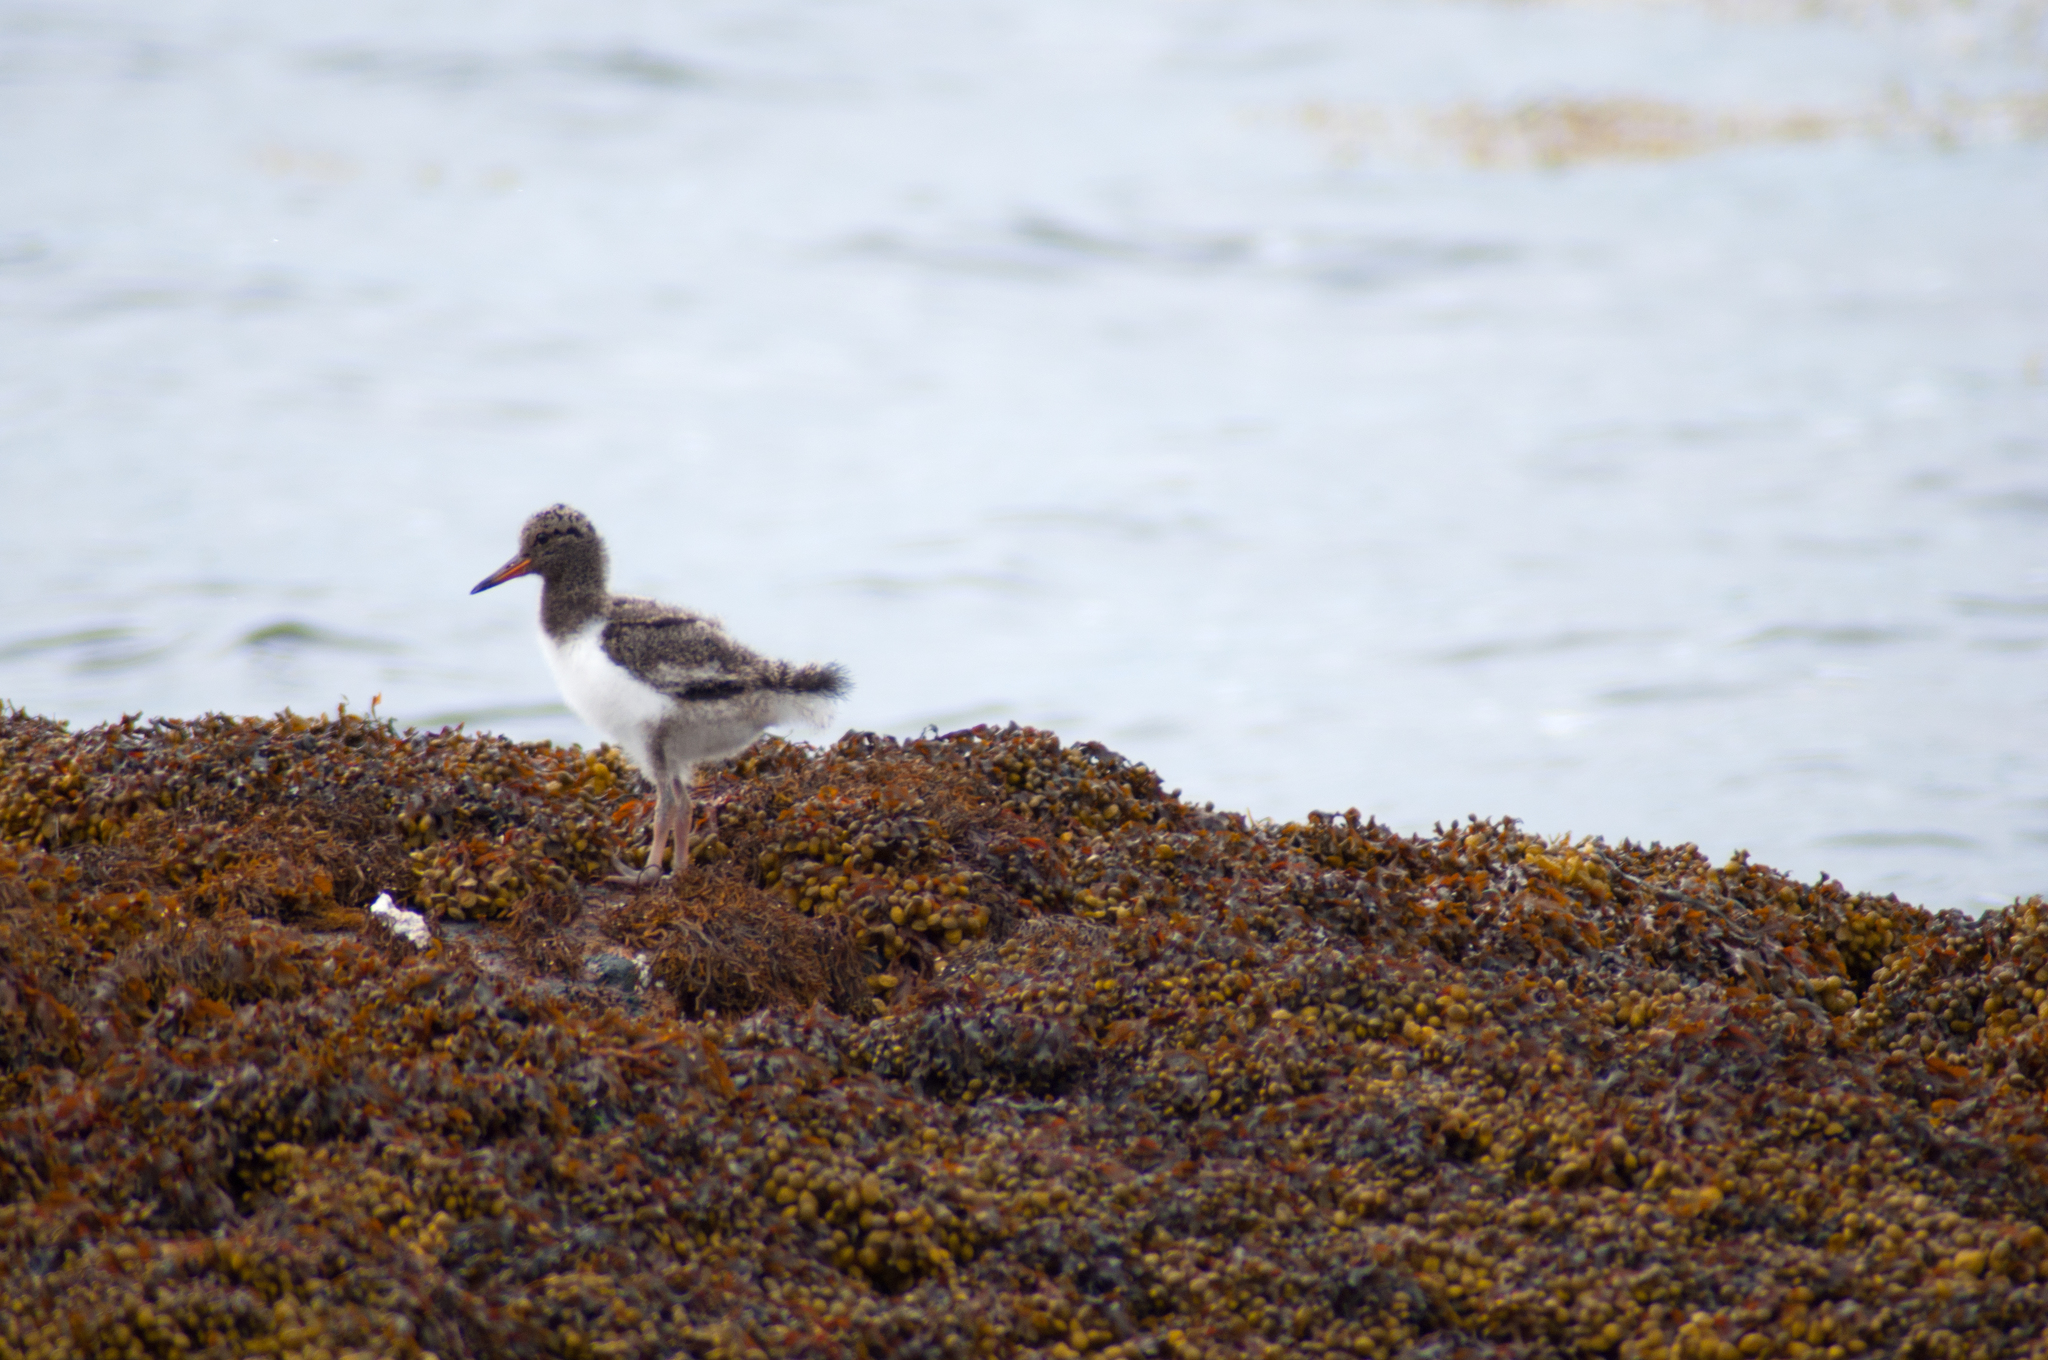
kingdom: Animalia
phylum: Chordata
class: Aves
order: Charadriiformes
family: Haematopodidae
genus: Haematopus
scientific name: Haematopus ostralegus
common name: Eurasian oystercatcher
